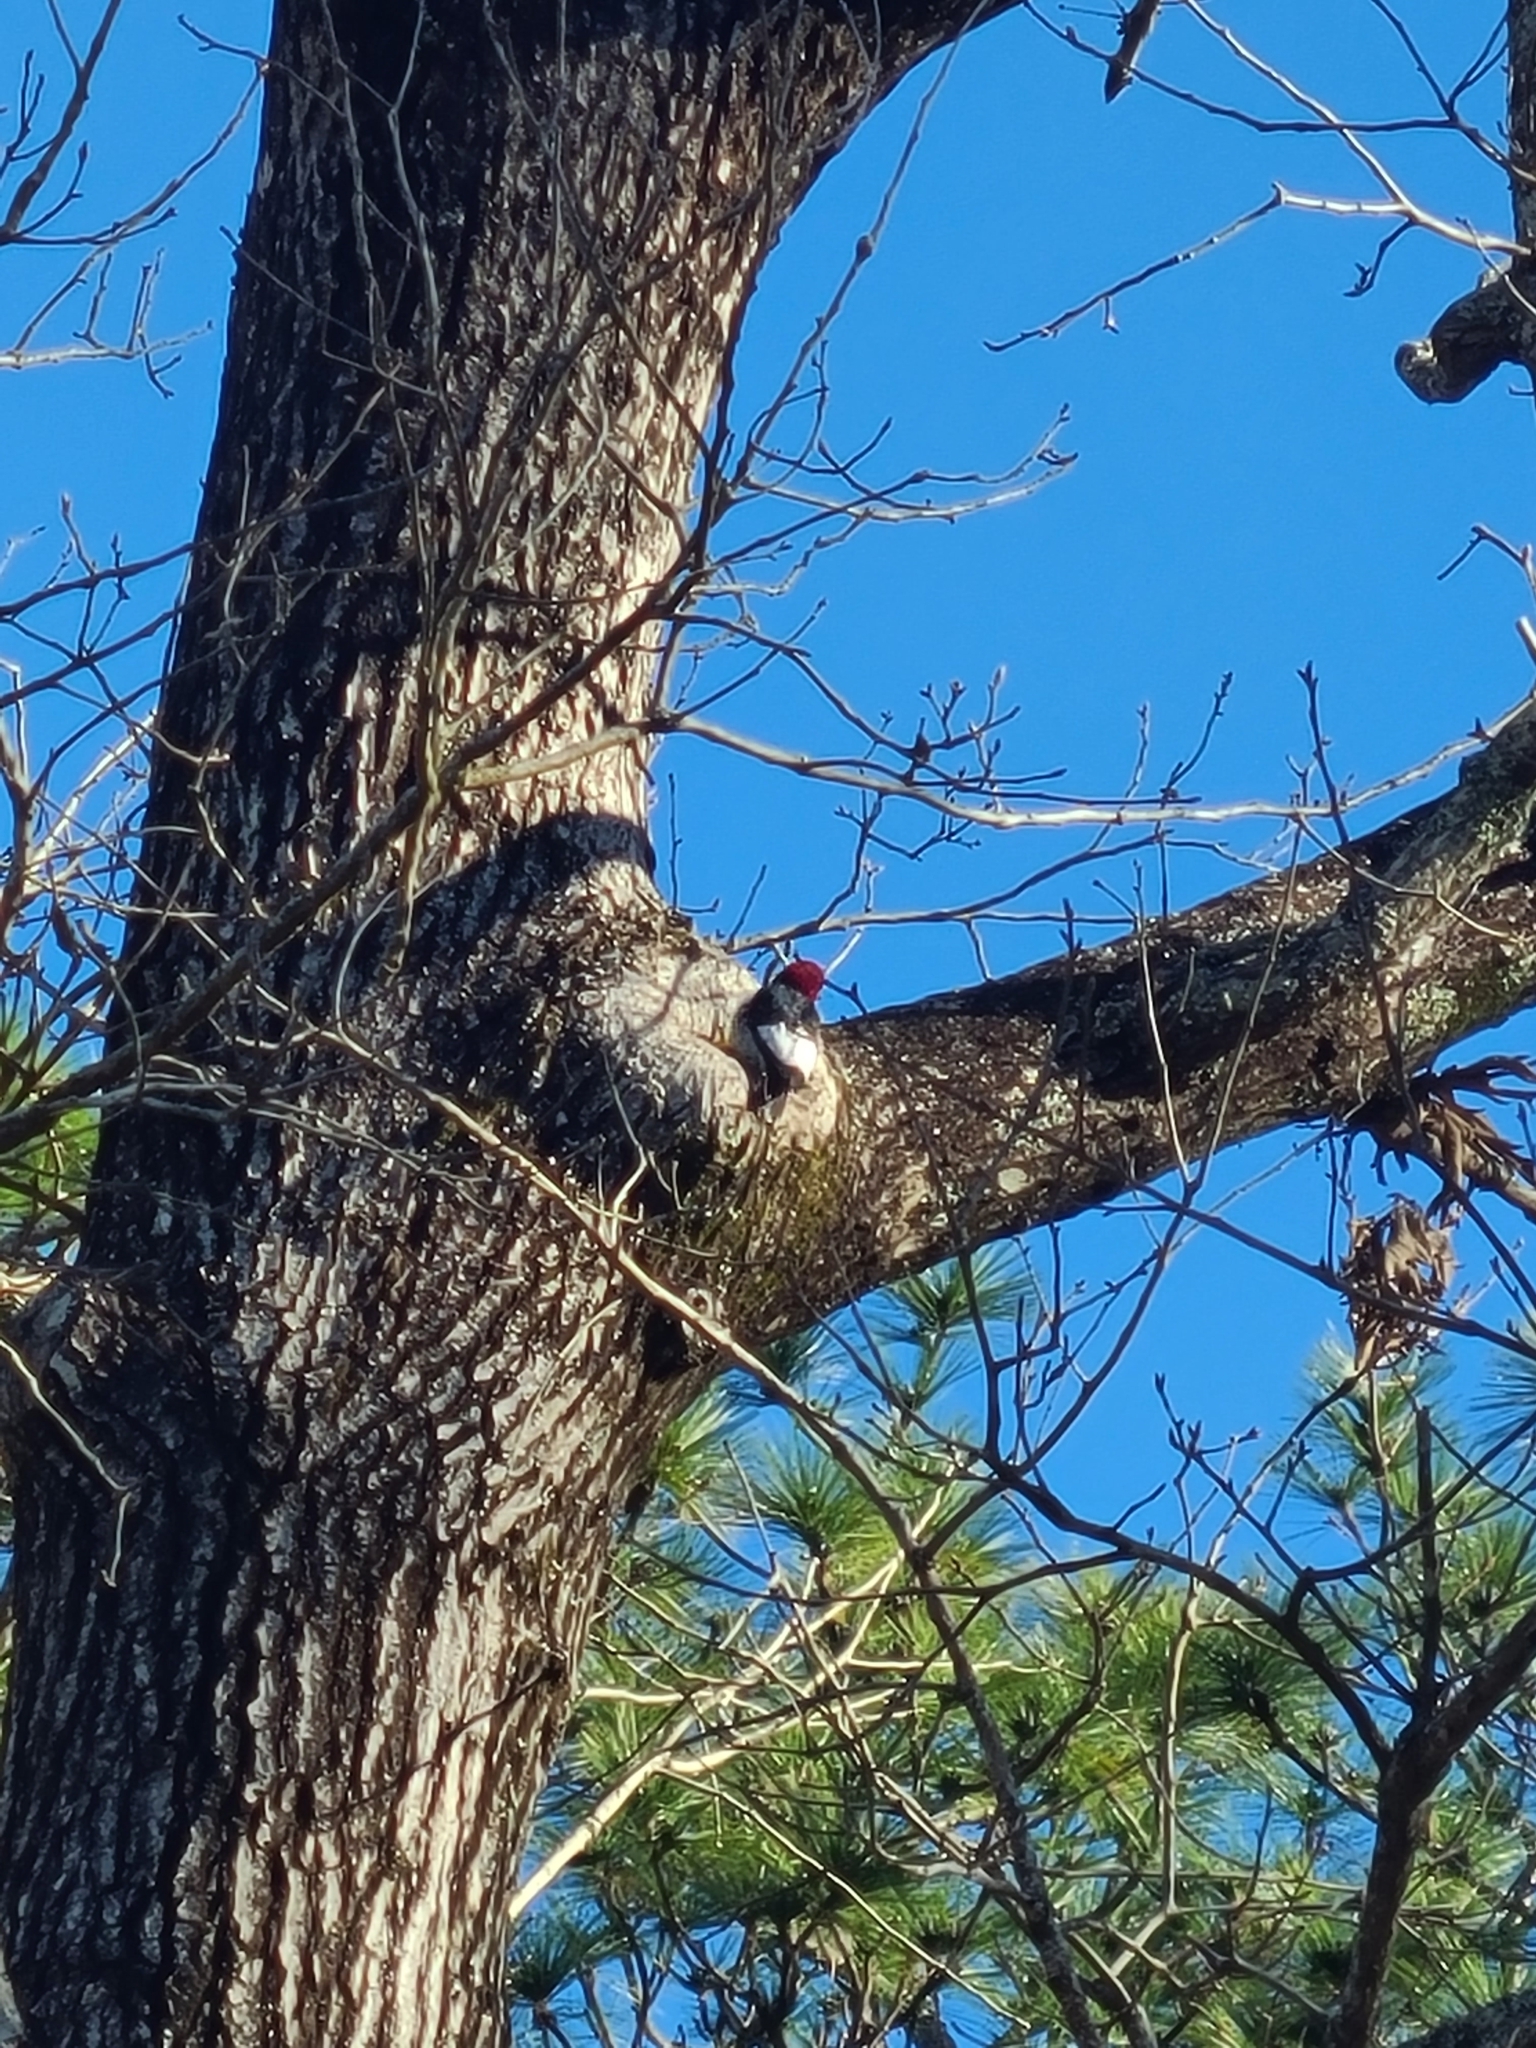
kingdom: Animalia
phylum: Chordata
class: Aves
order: Piciformes
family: Picidae
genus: Melanerpes
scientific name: Melanerpes erythrocephalus
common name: Red-headed woodpecker
